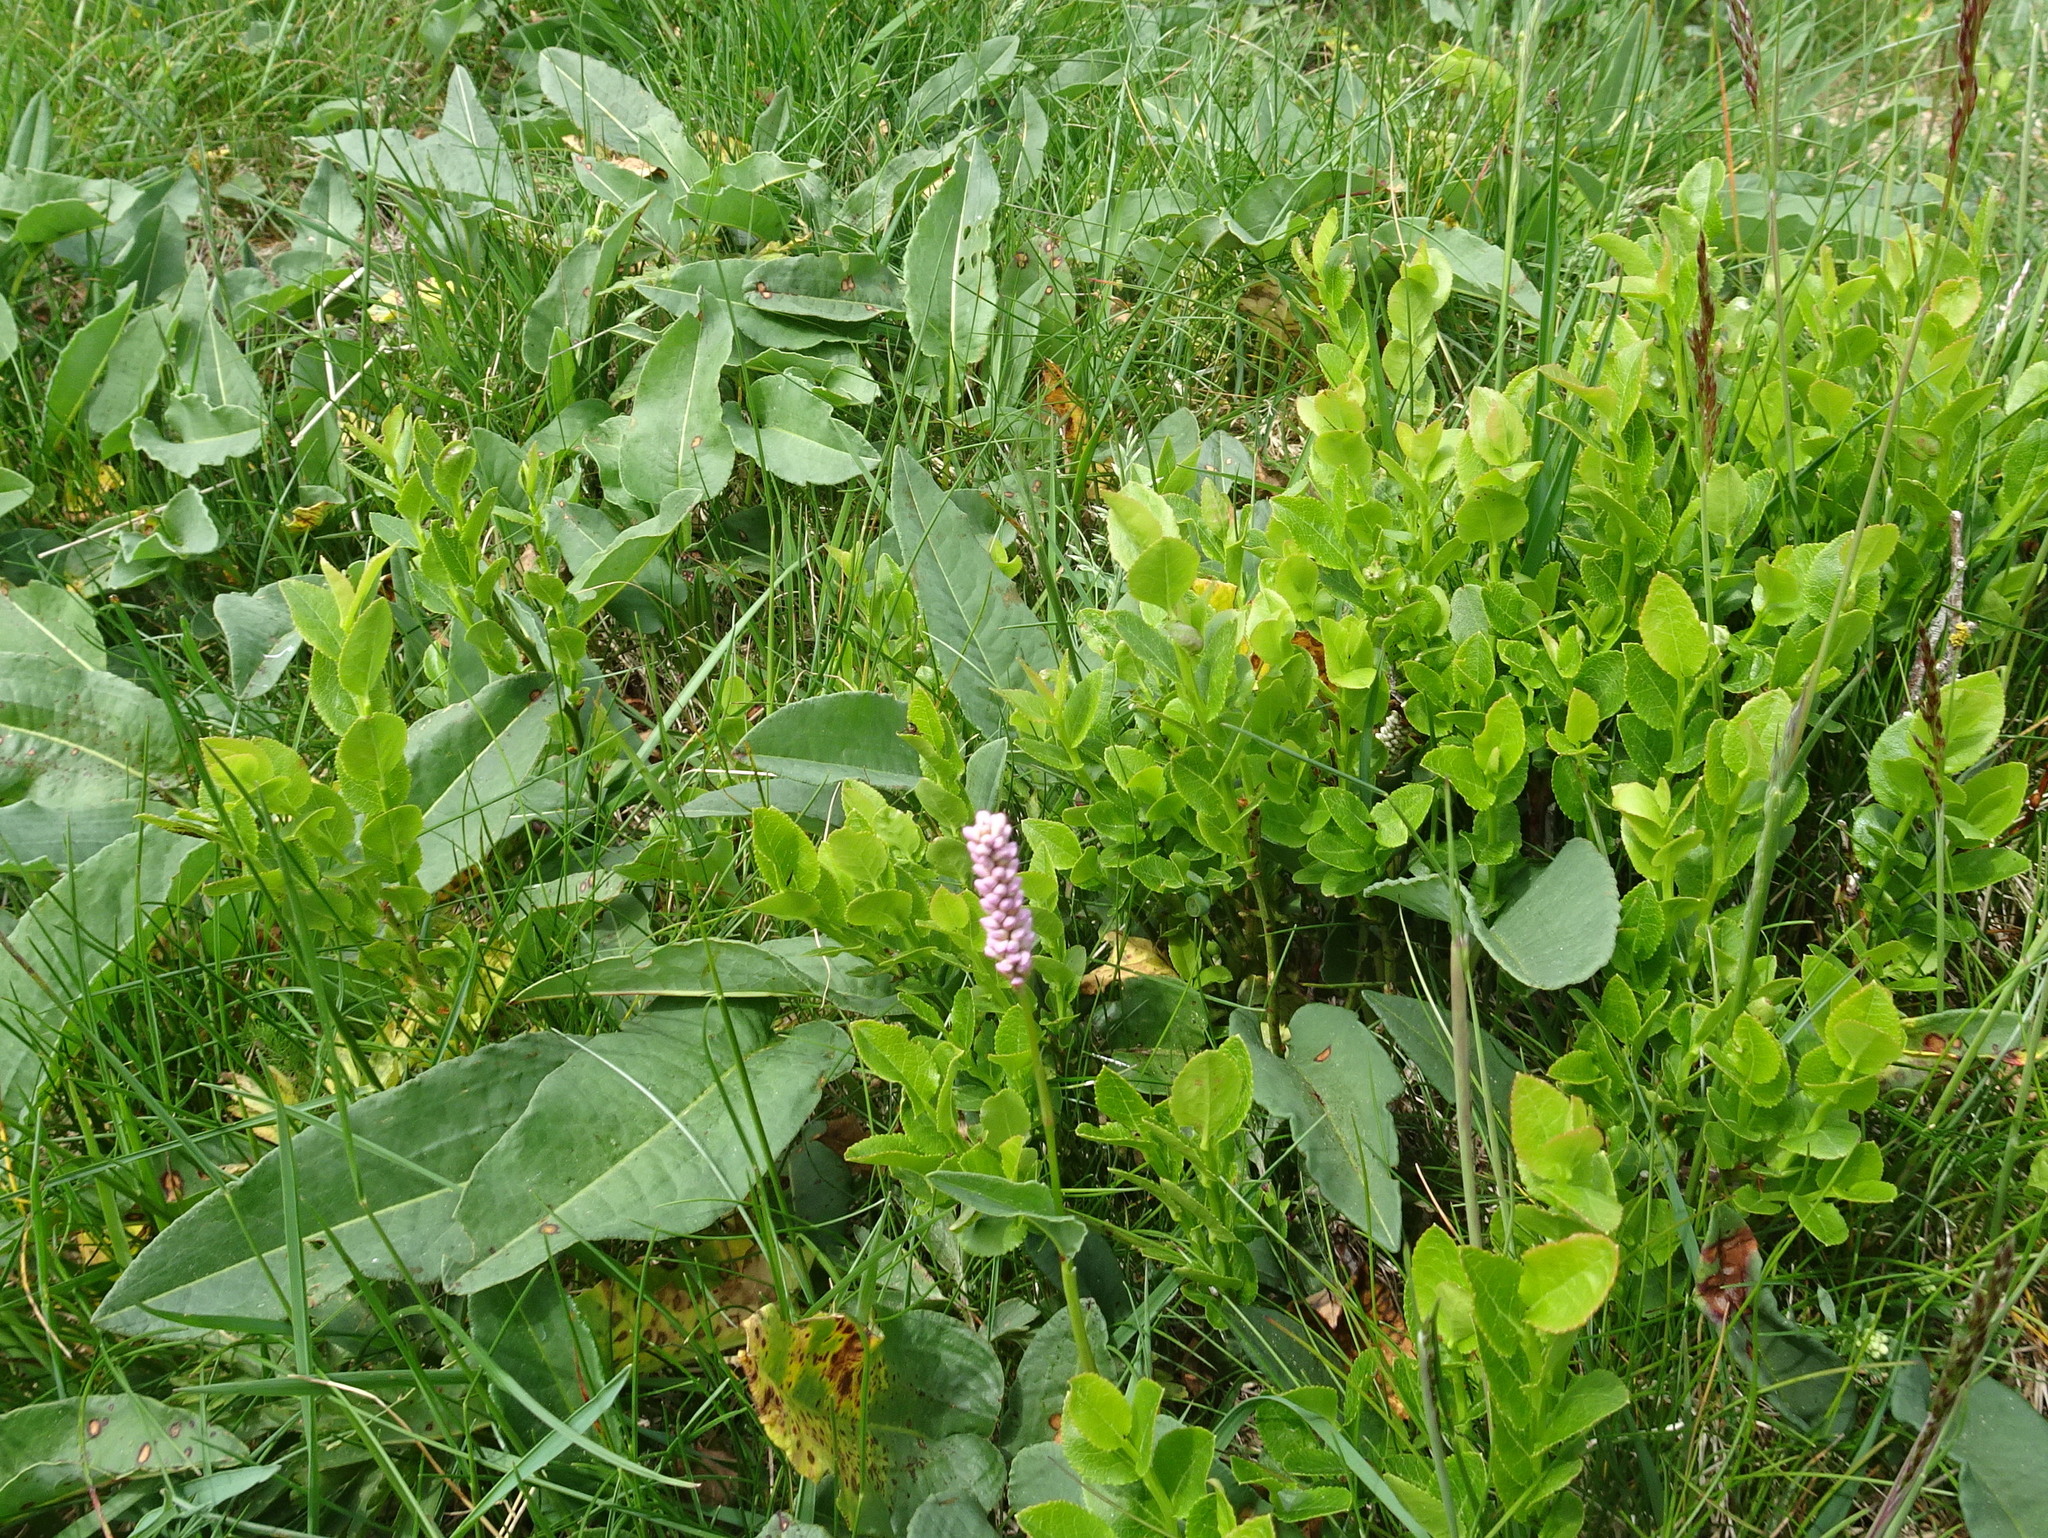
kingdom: Plantae
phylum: Tracheophyta
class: Magnoliopsida
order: Caryophyllales
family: Polygonaceae
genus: Bistorta
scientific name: Bistorta officinalis
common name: Common bistort
